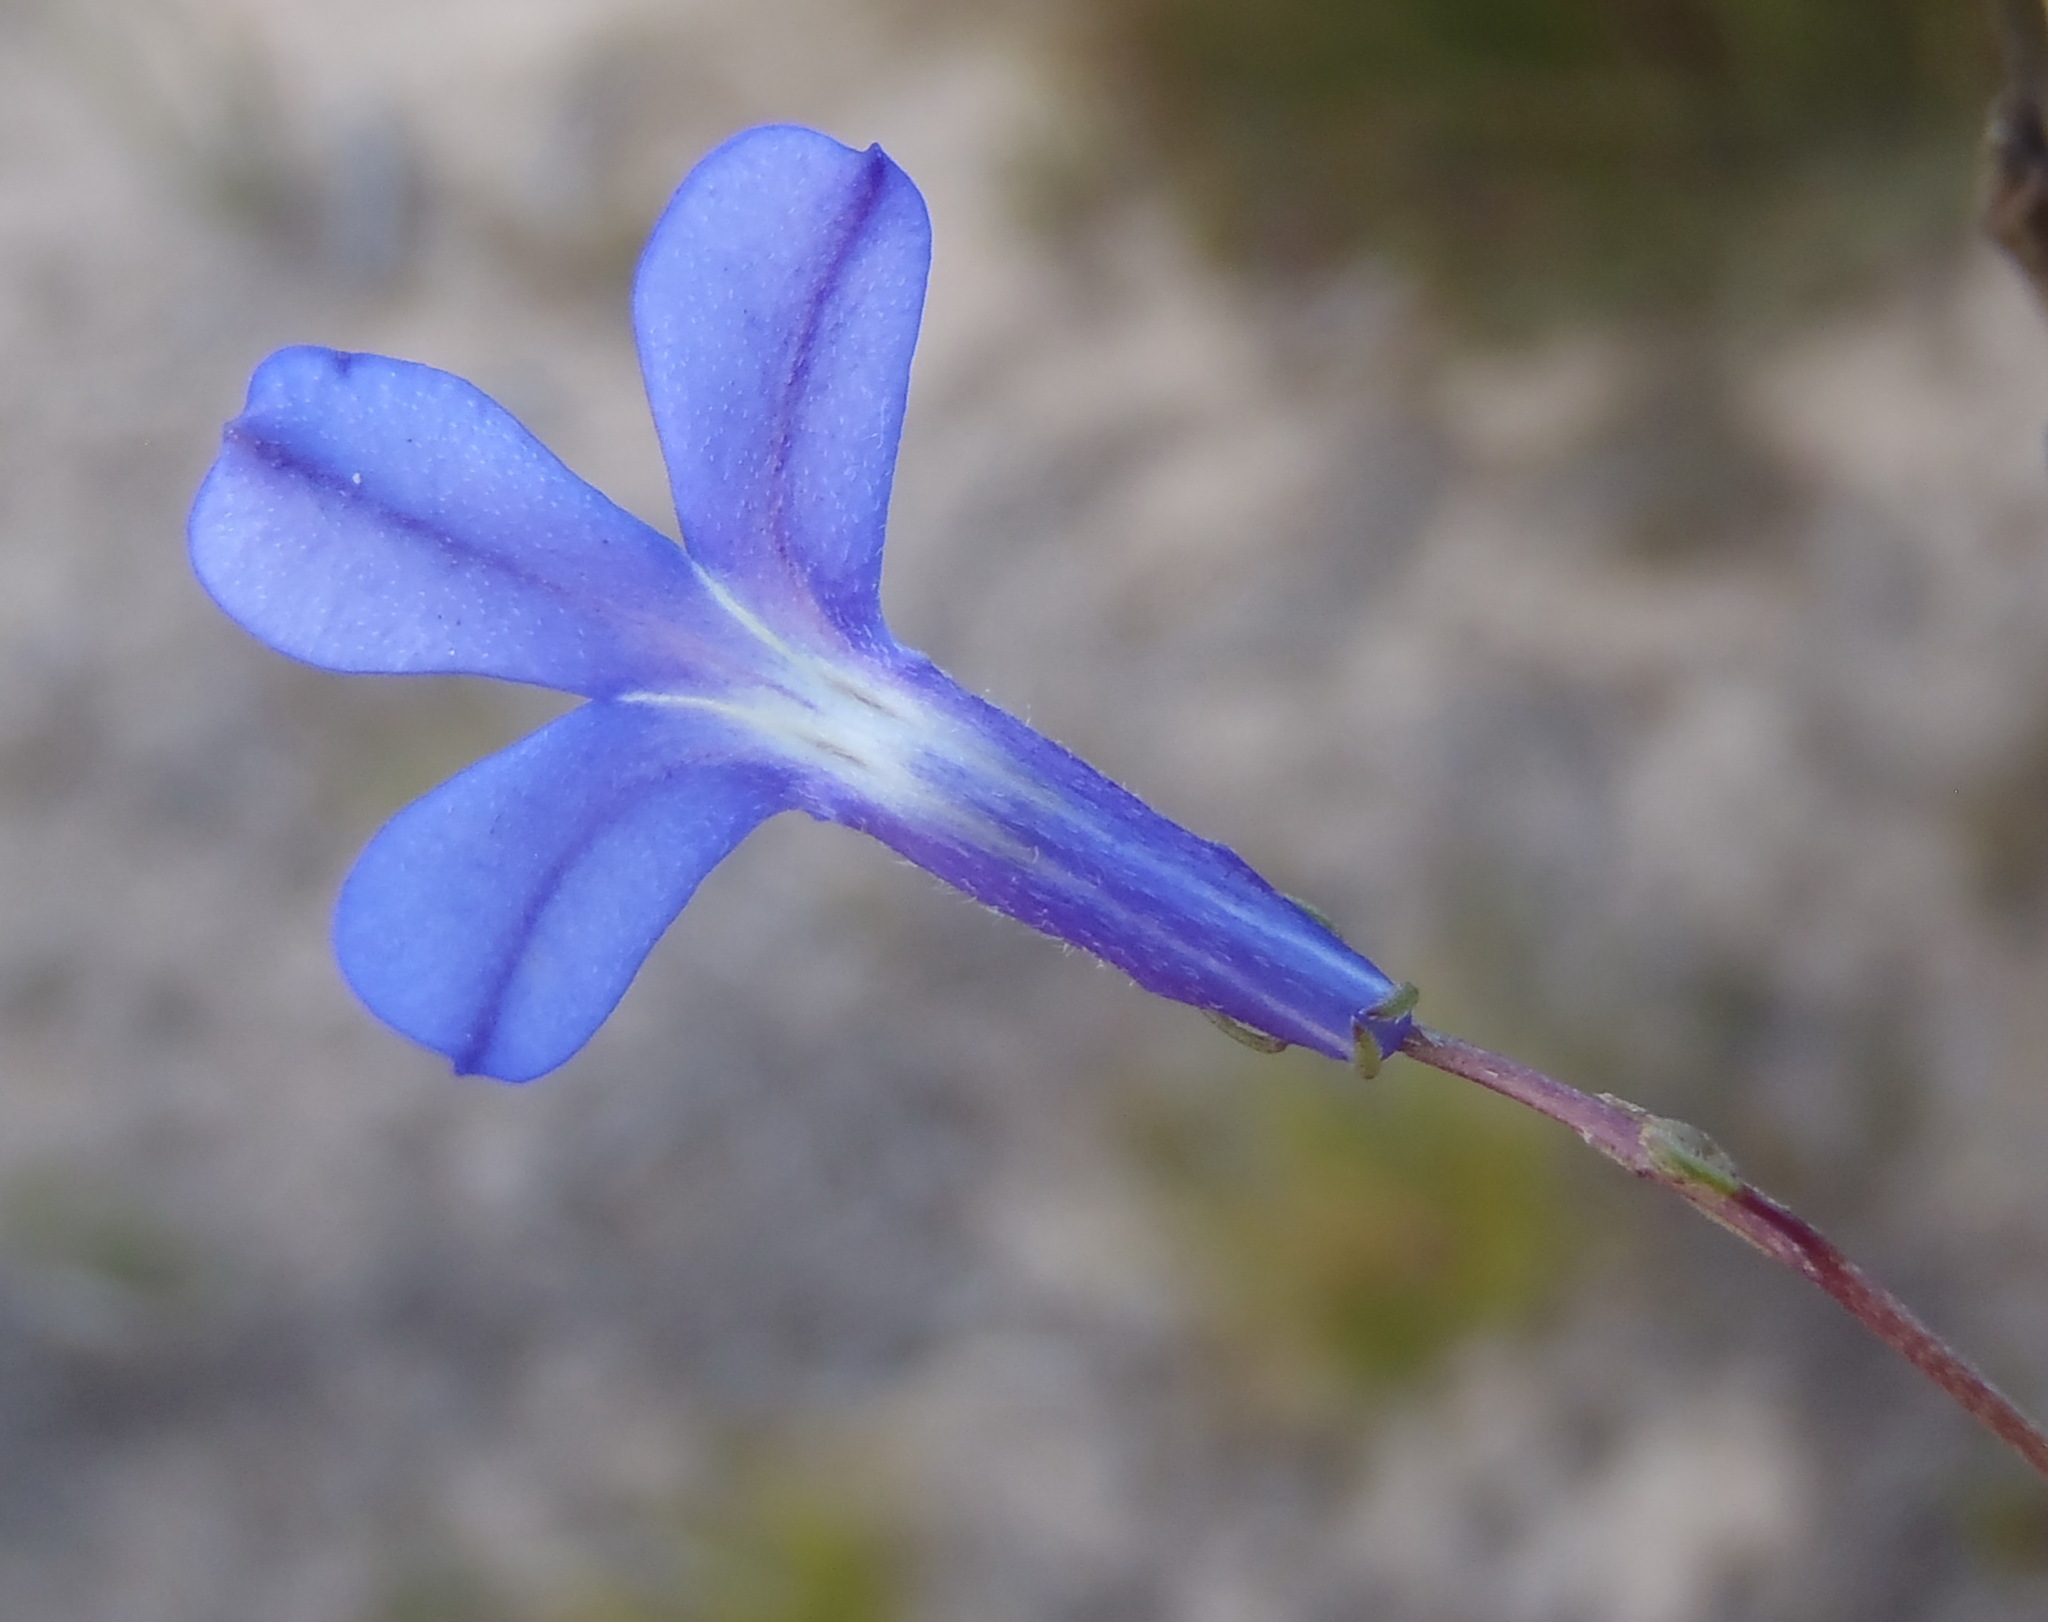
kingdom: Plantae
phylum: Tracheophyta
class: Magnoliopsida
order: Asterales
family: Campanulaceae
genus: Lobelia
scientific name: Lobelia tomentosa
